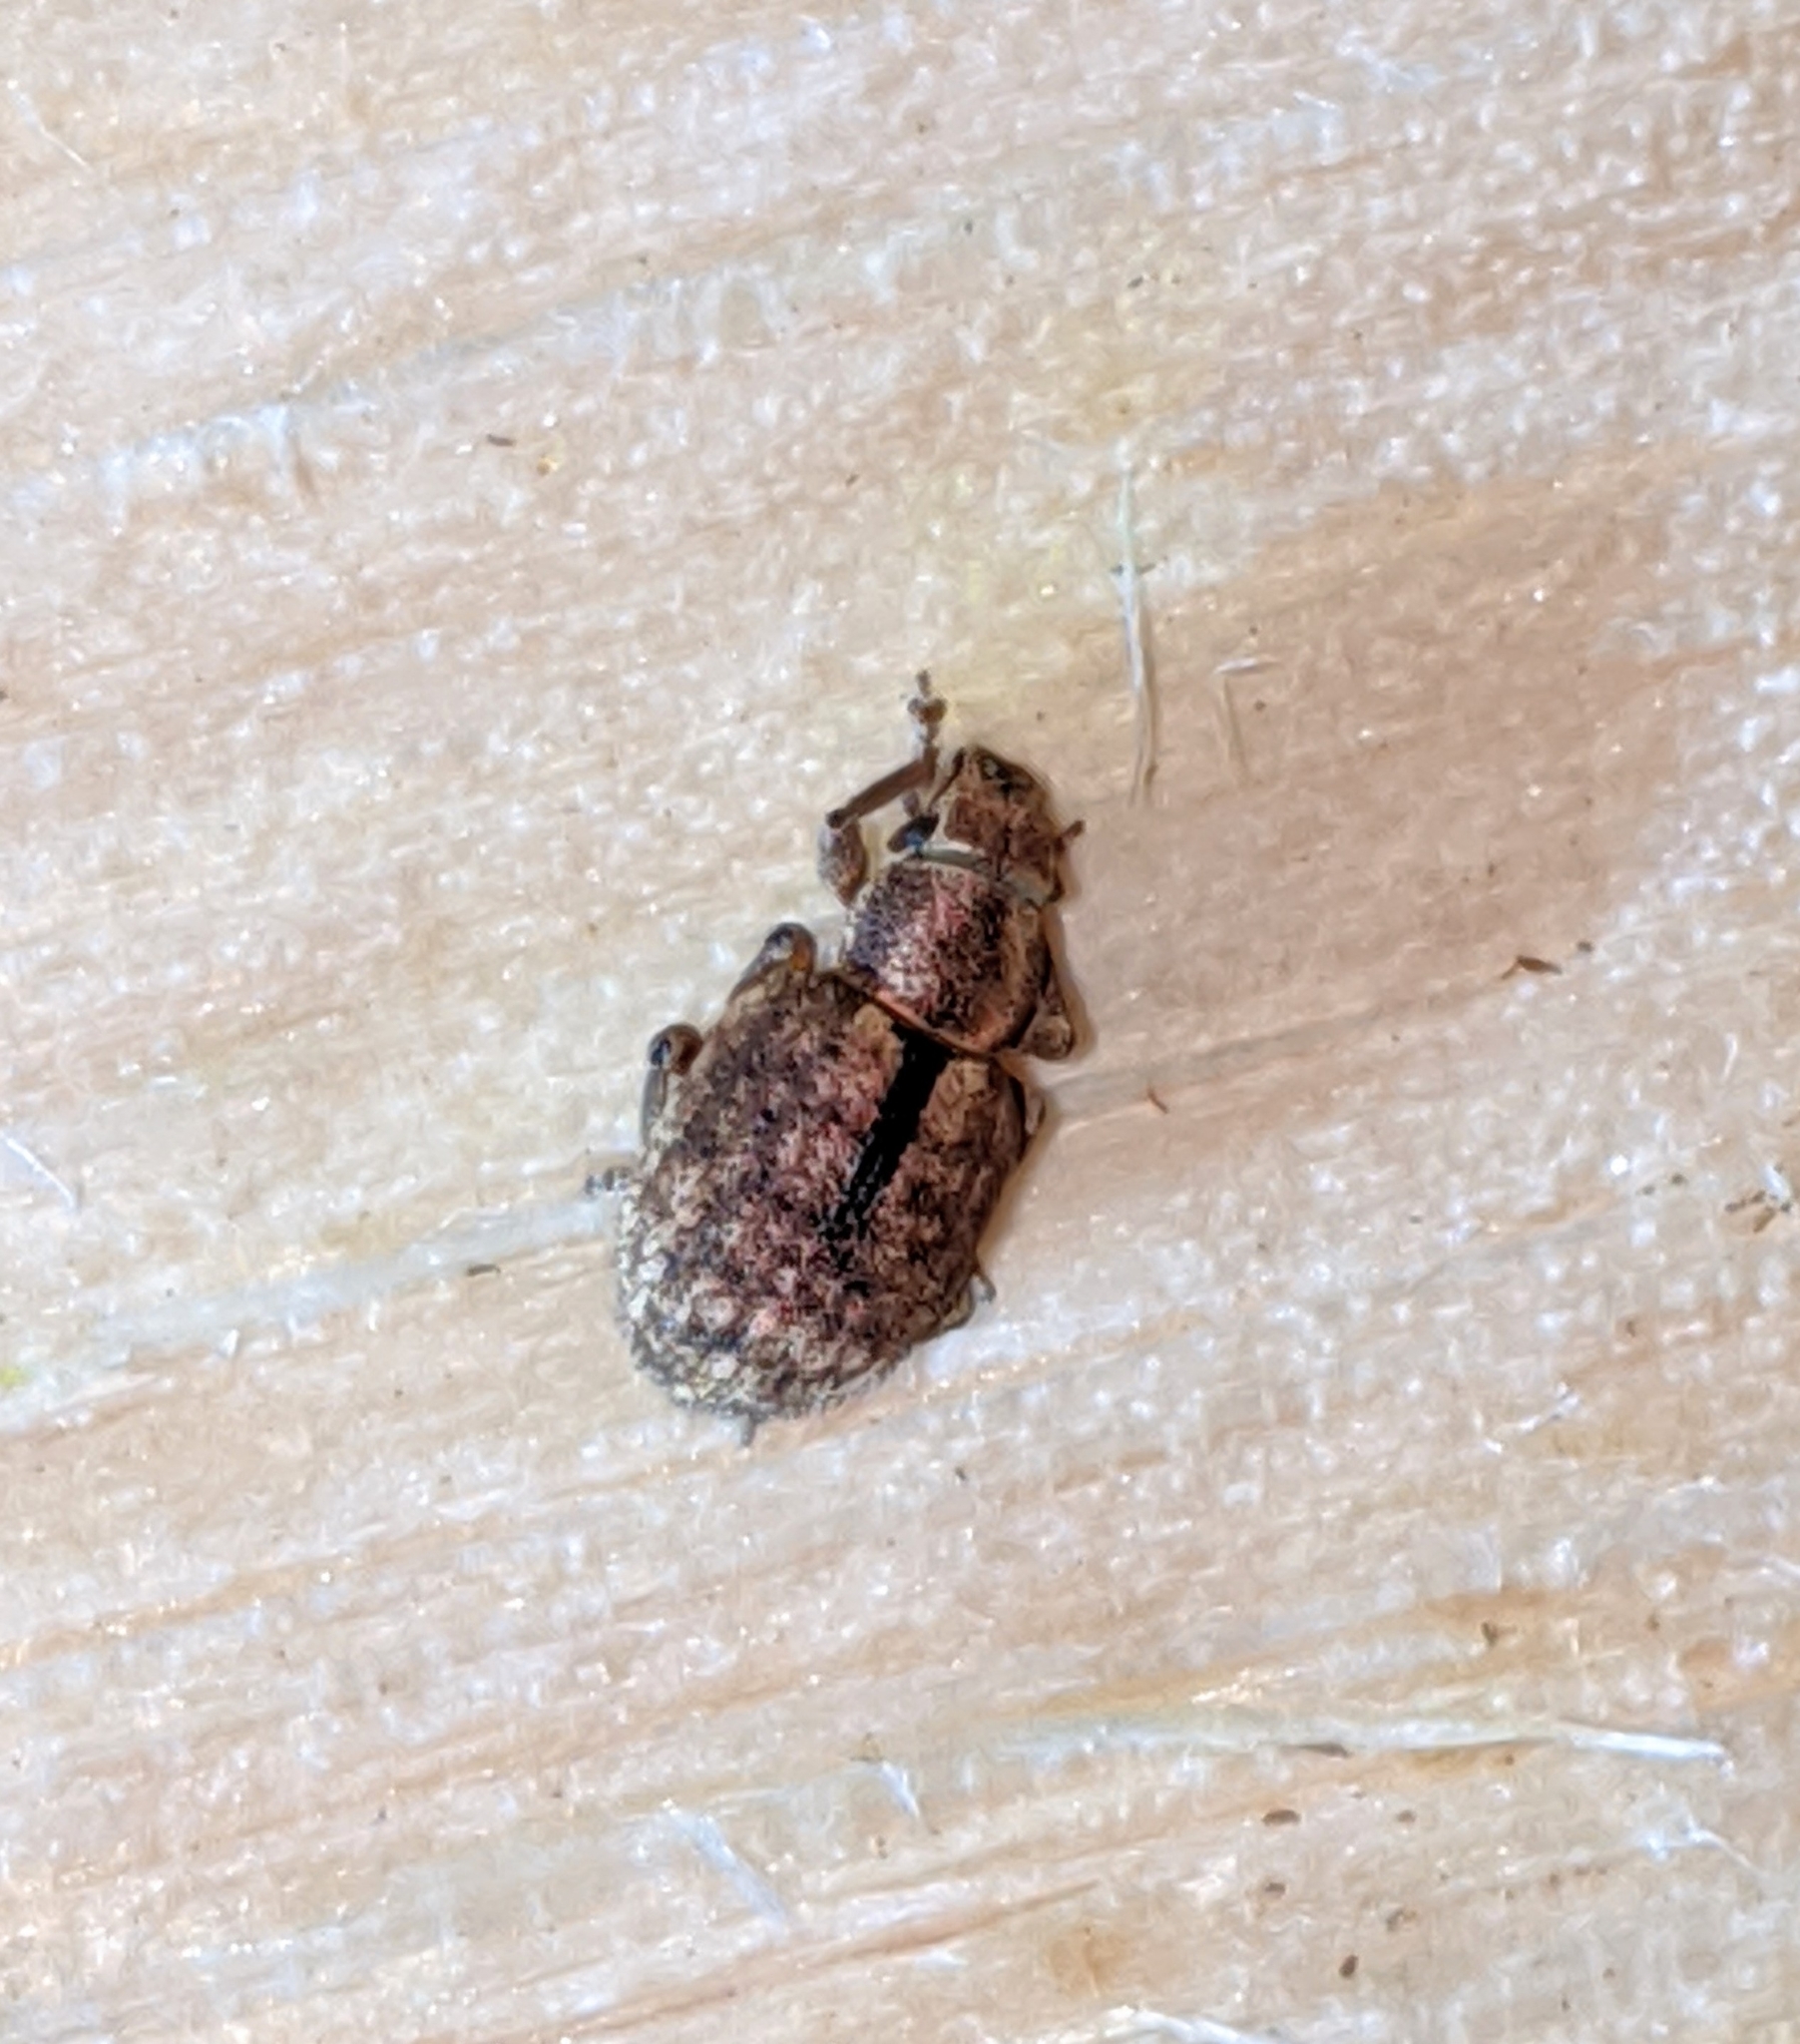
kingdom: Animalia
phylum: Arthropoda
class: Insecta
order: Coleoptera
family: Curculionidae
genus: Strophosoma
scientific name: Strophosoma melanogrammum
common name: Weevil
